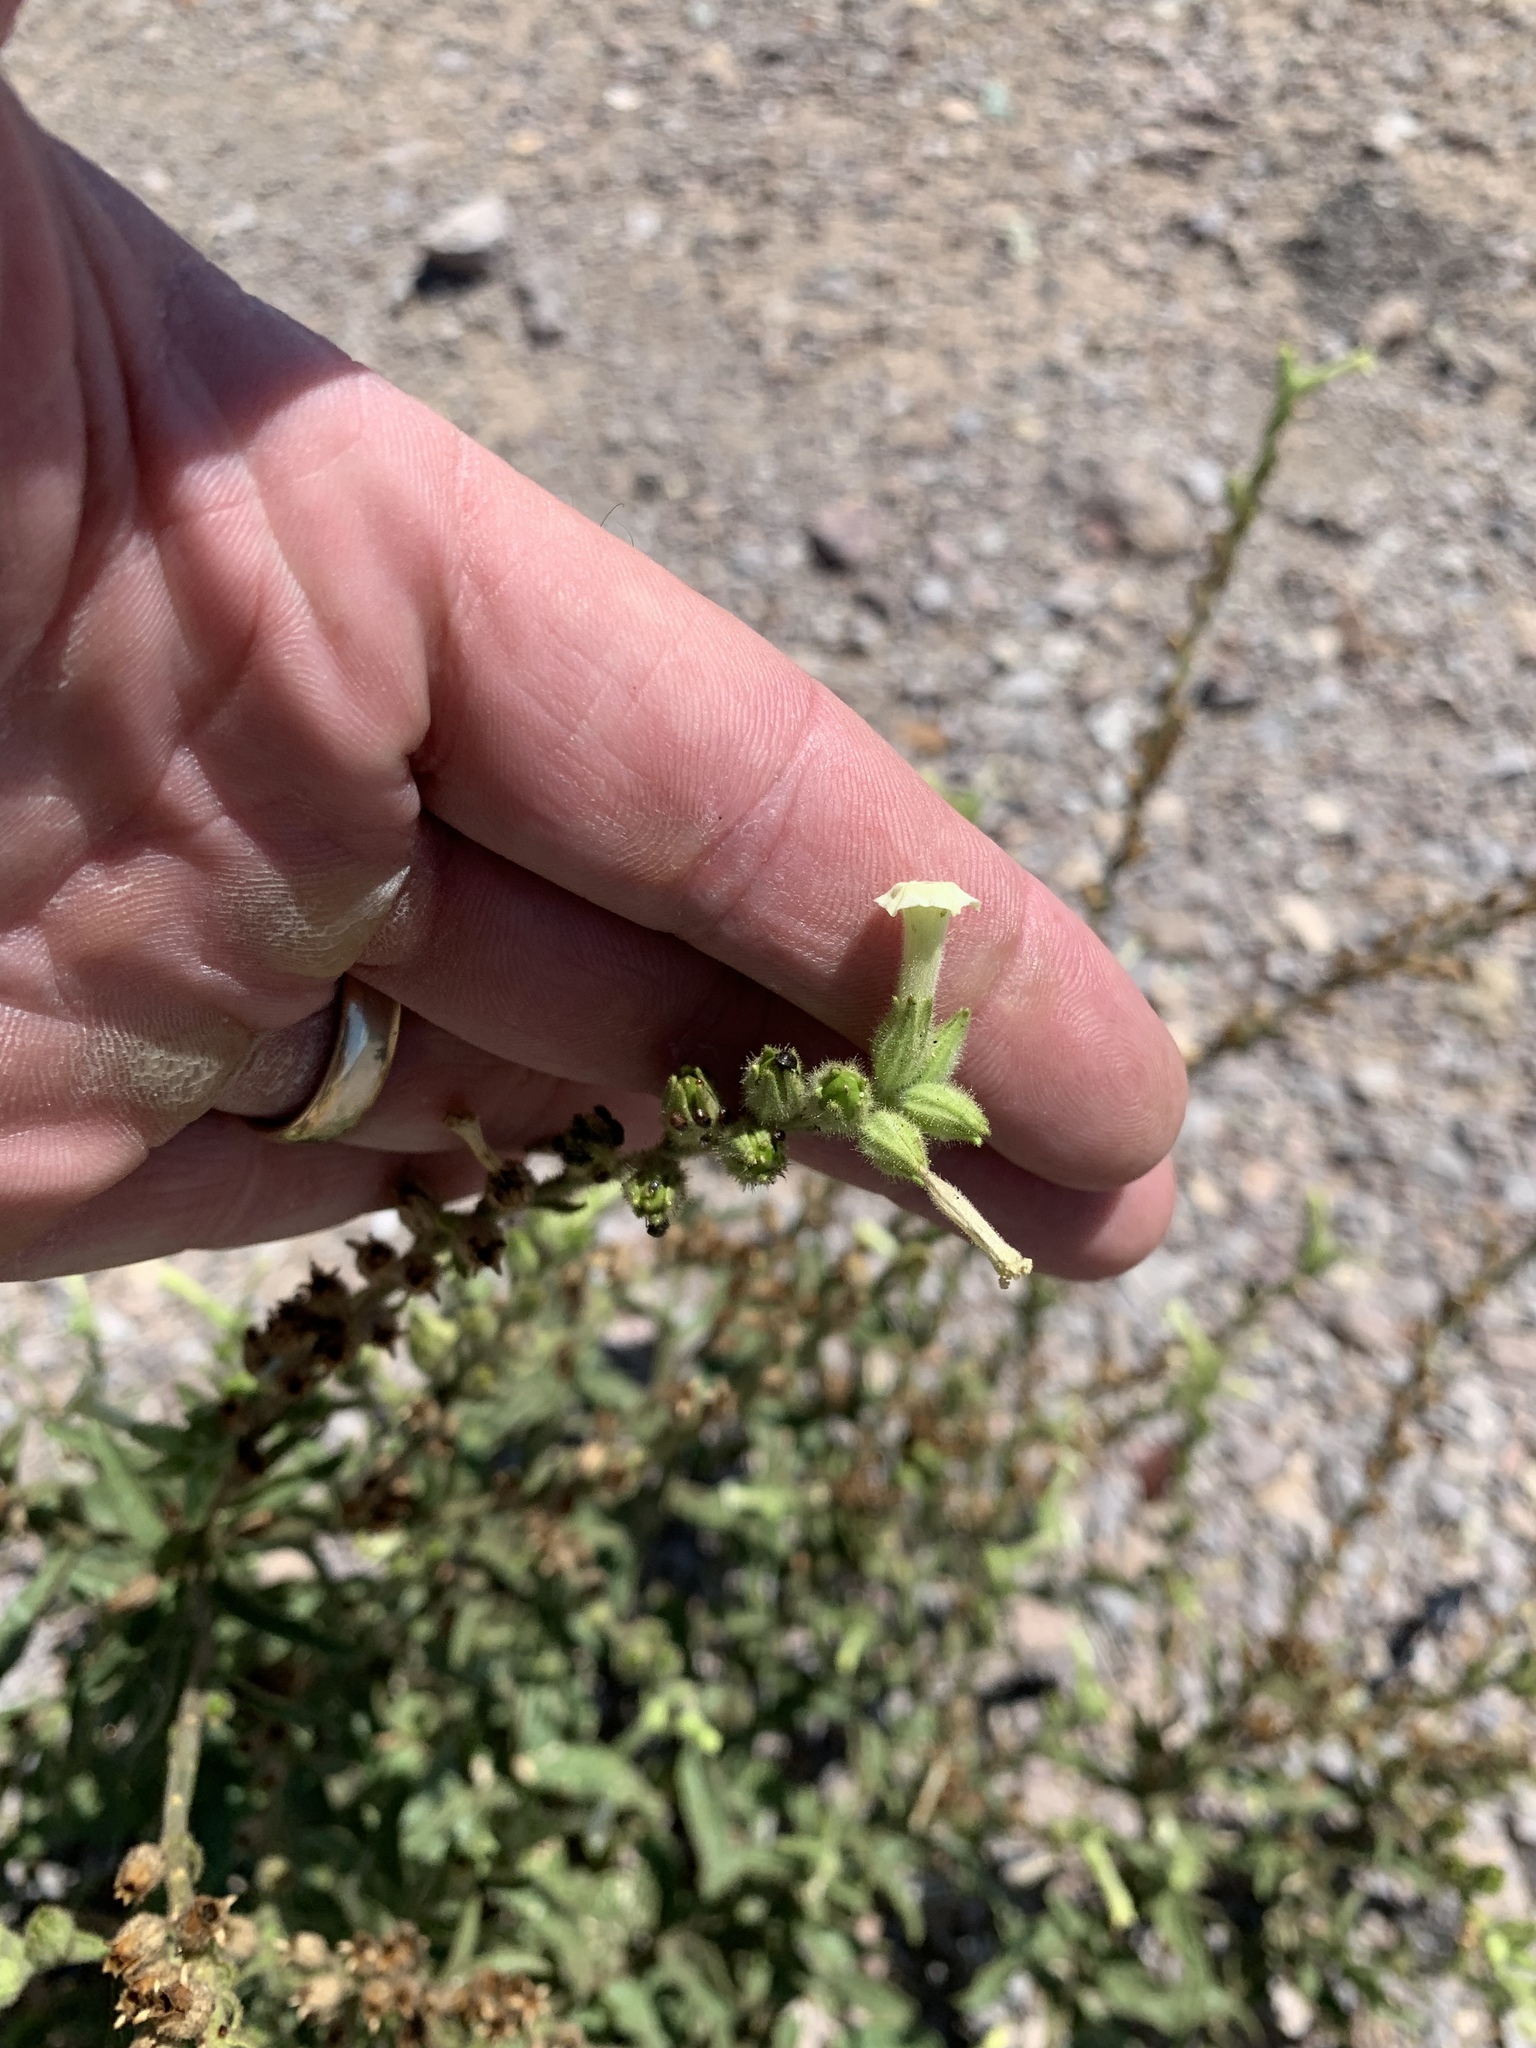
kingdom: Plantae
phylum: Tracheophyta
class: Magnoliopsida
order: Solanales
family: Solanaceae
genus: Nicotiana
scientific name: Nicotiana obtusifolia
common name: Desert tobacco
